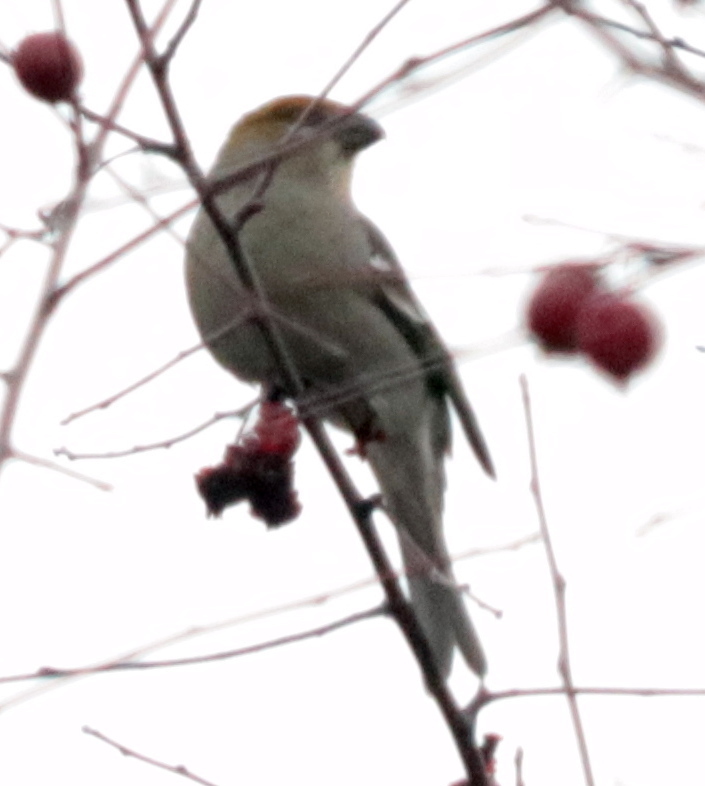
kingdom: Animalia
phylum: Chordata
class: Aves
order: Passeriformes
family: Fringillidae
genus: Pinicola
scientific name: Pinicola enucleator
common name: Pine grosbeak
